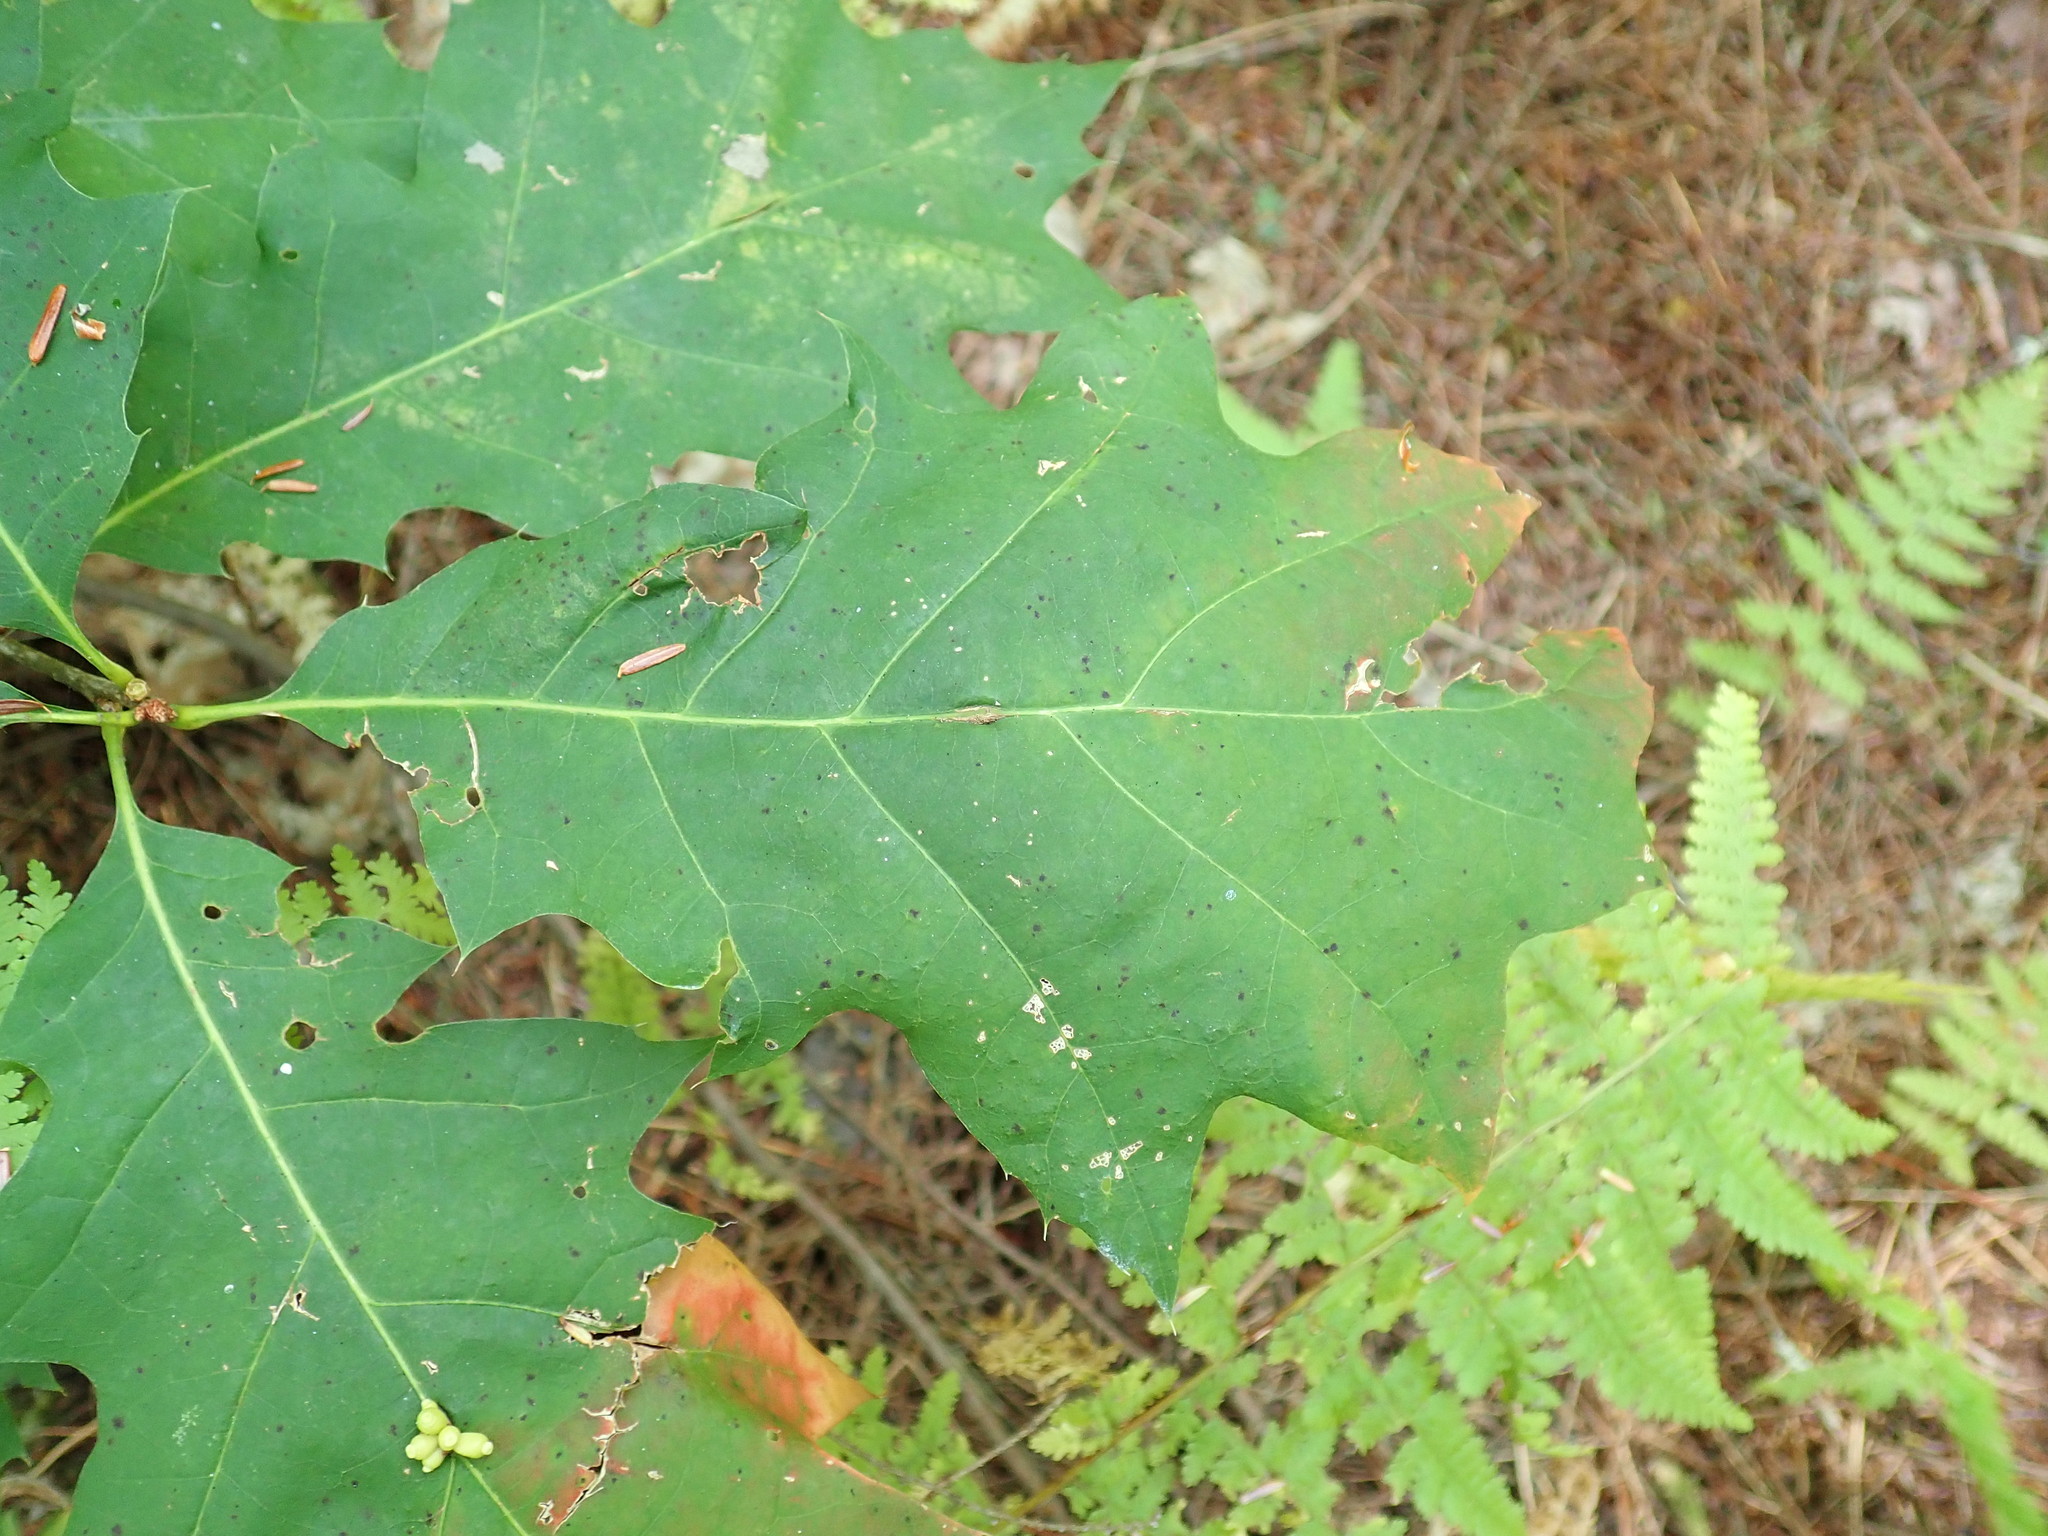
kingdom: Plantae
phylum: Tracheophyta
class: Magnoliopsida
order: Fagales
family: Fagaceae
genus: Quercus
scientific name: Quercus rubra
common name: Red oak
